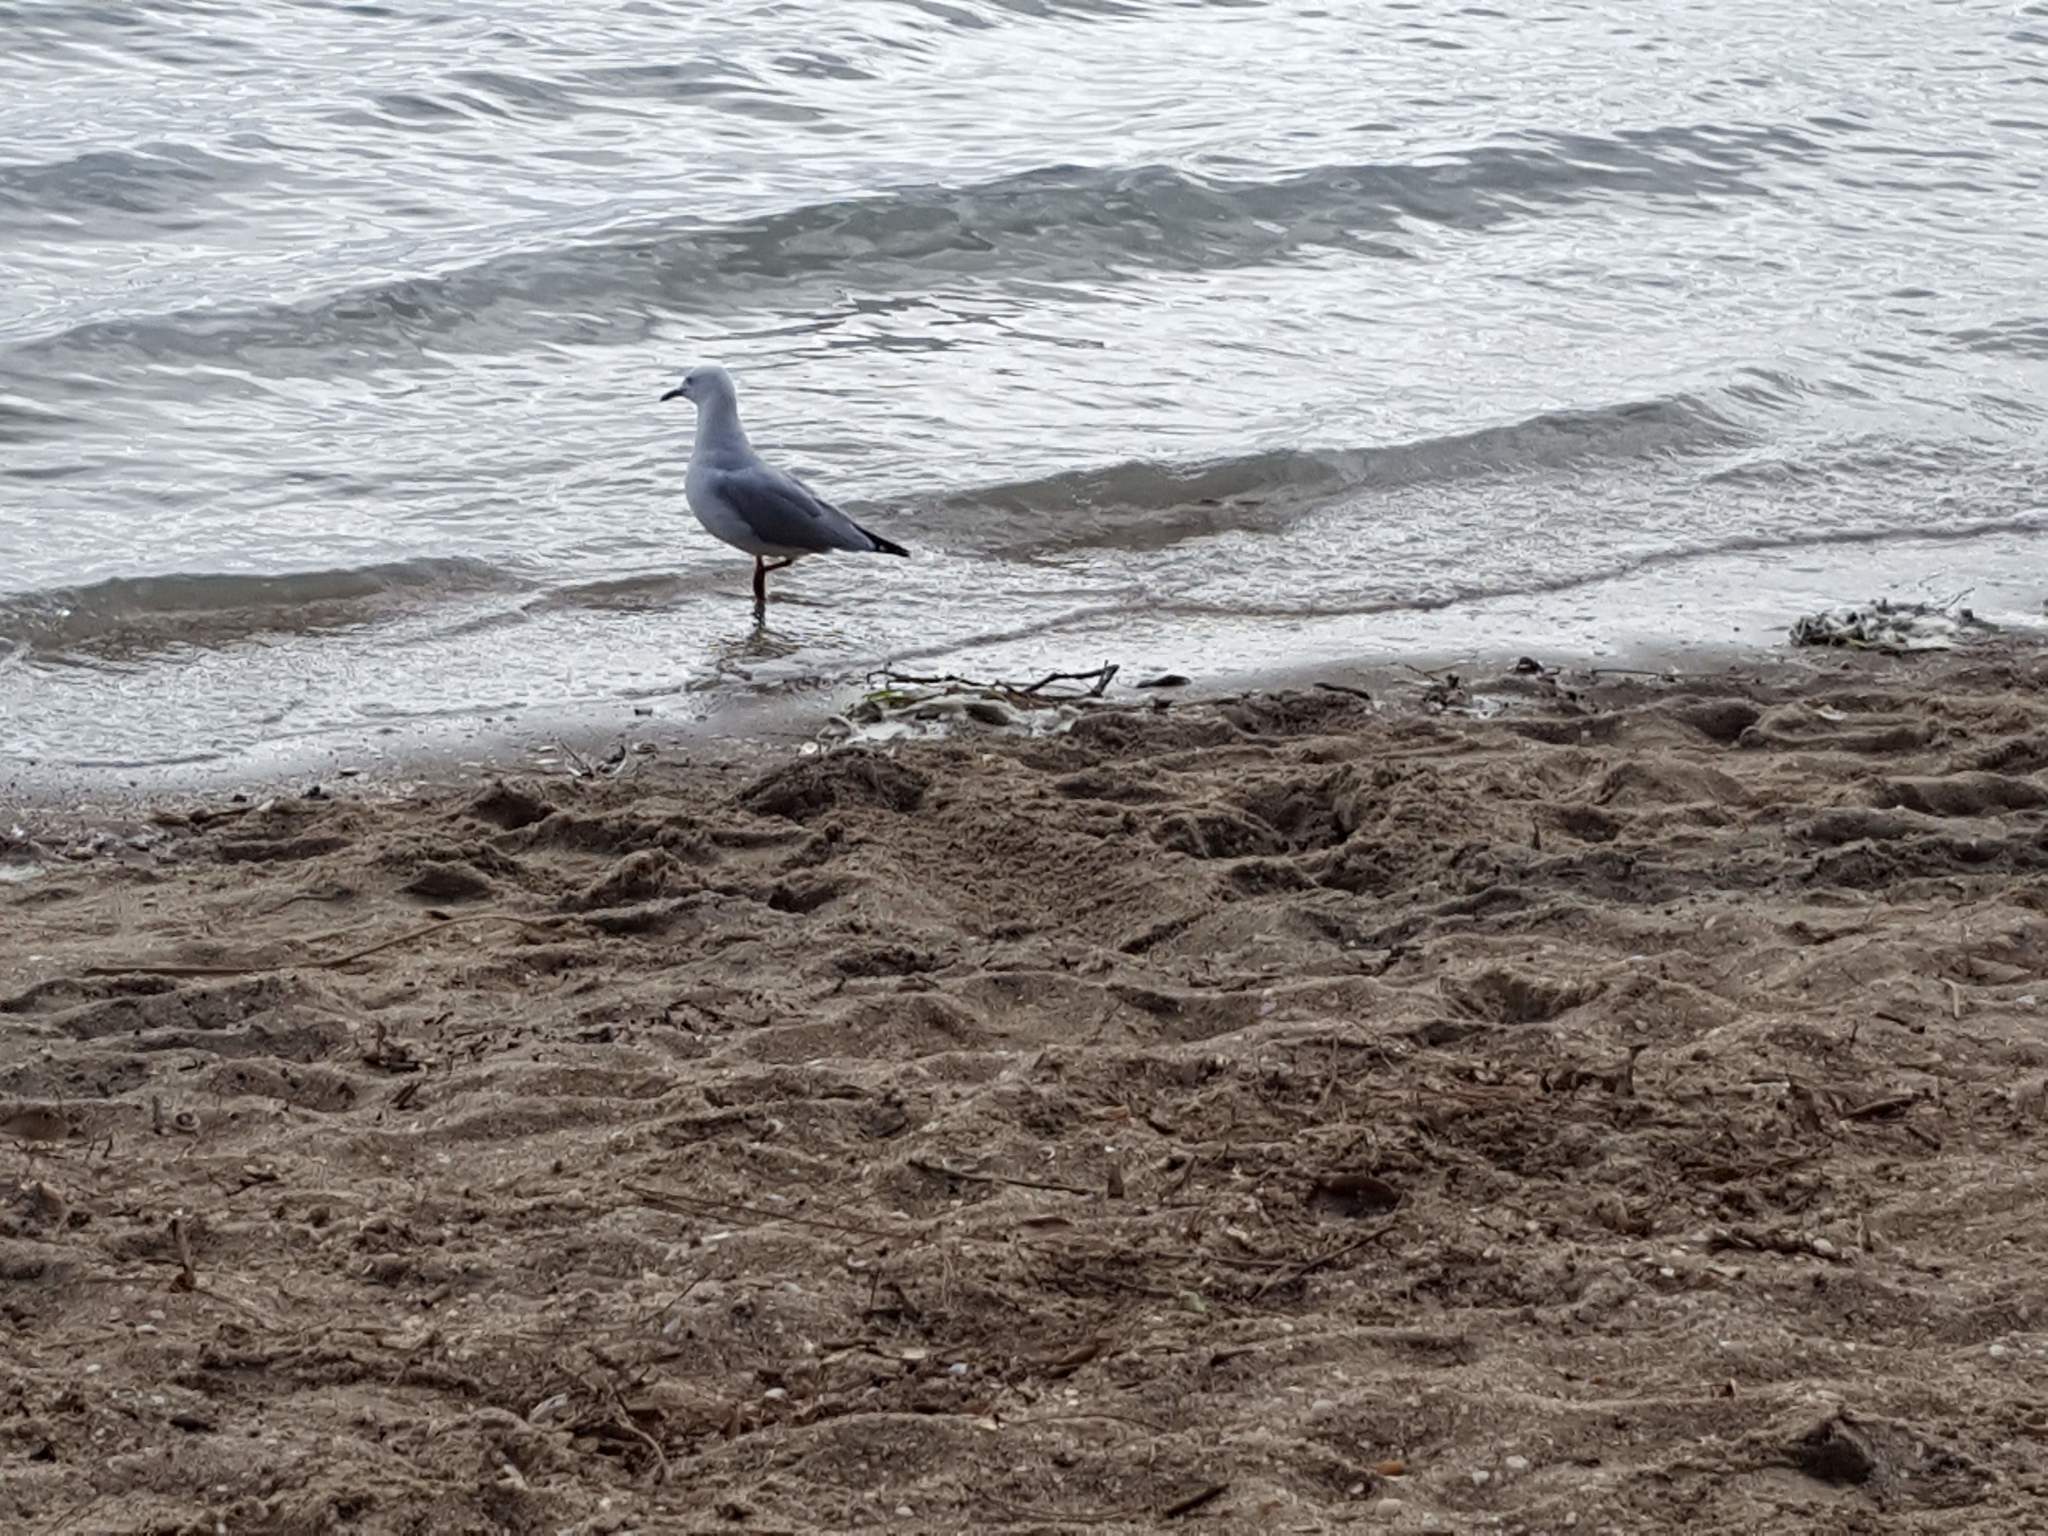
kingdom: Animalia
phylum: Chordata
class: Aves
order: Charadriiformes
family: Laridae
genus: Chroicocephalus
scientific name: Chroicocephalus novaehollandiae
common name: Silver gull
